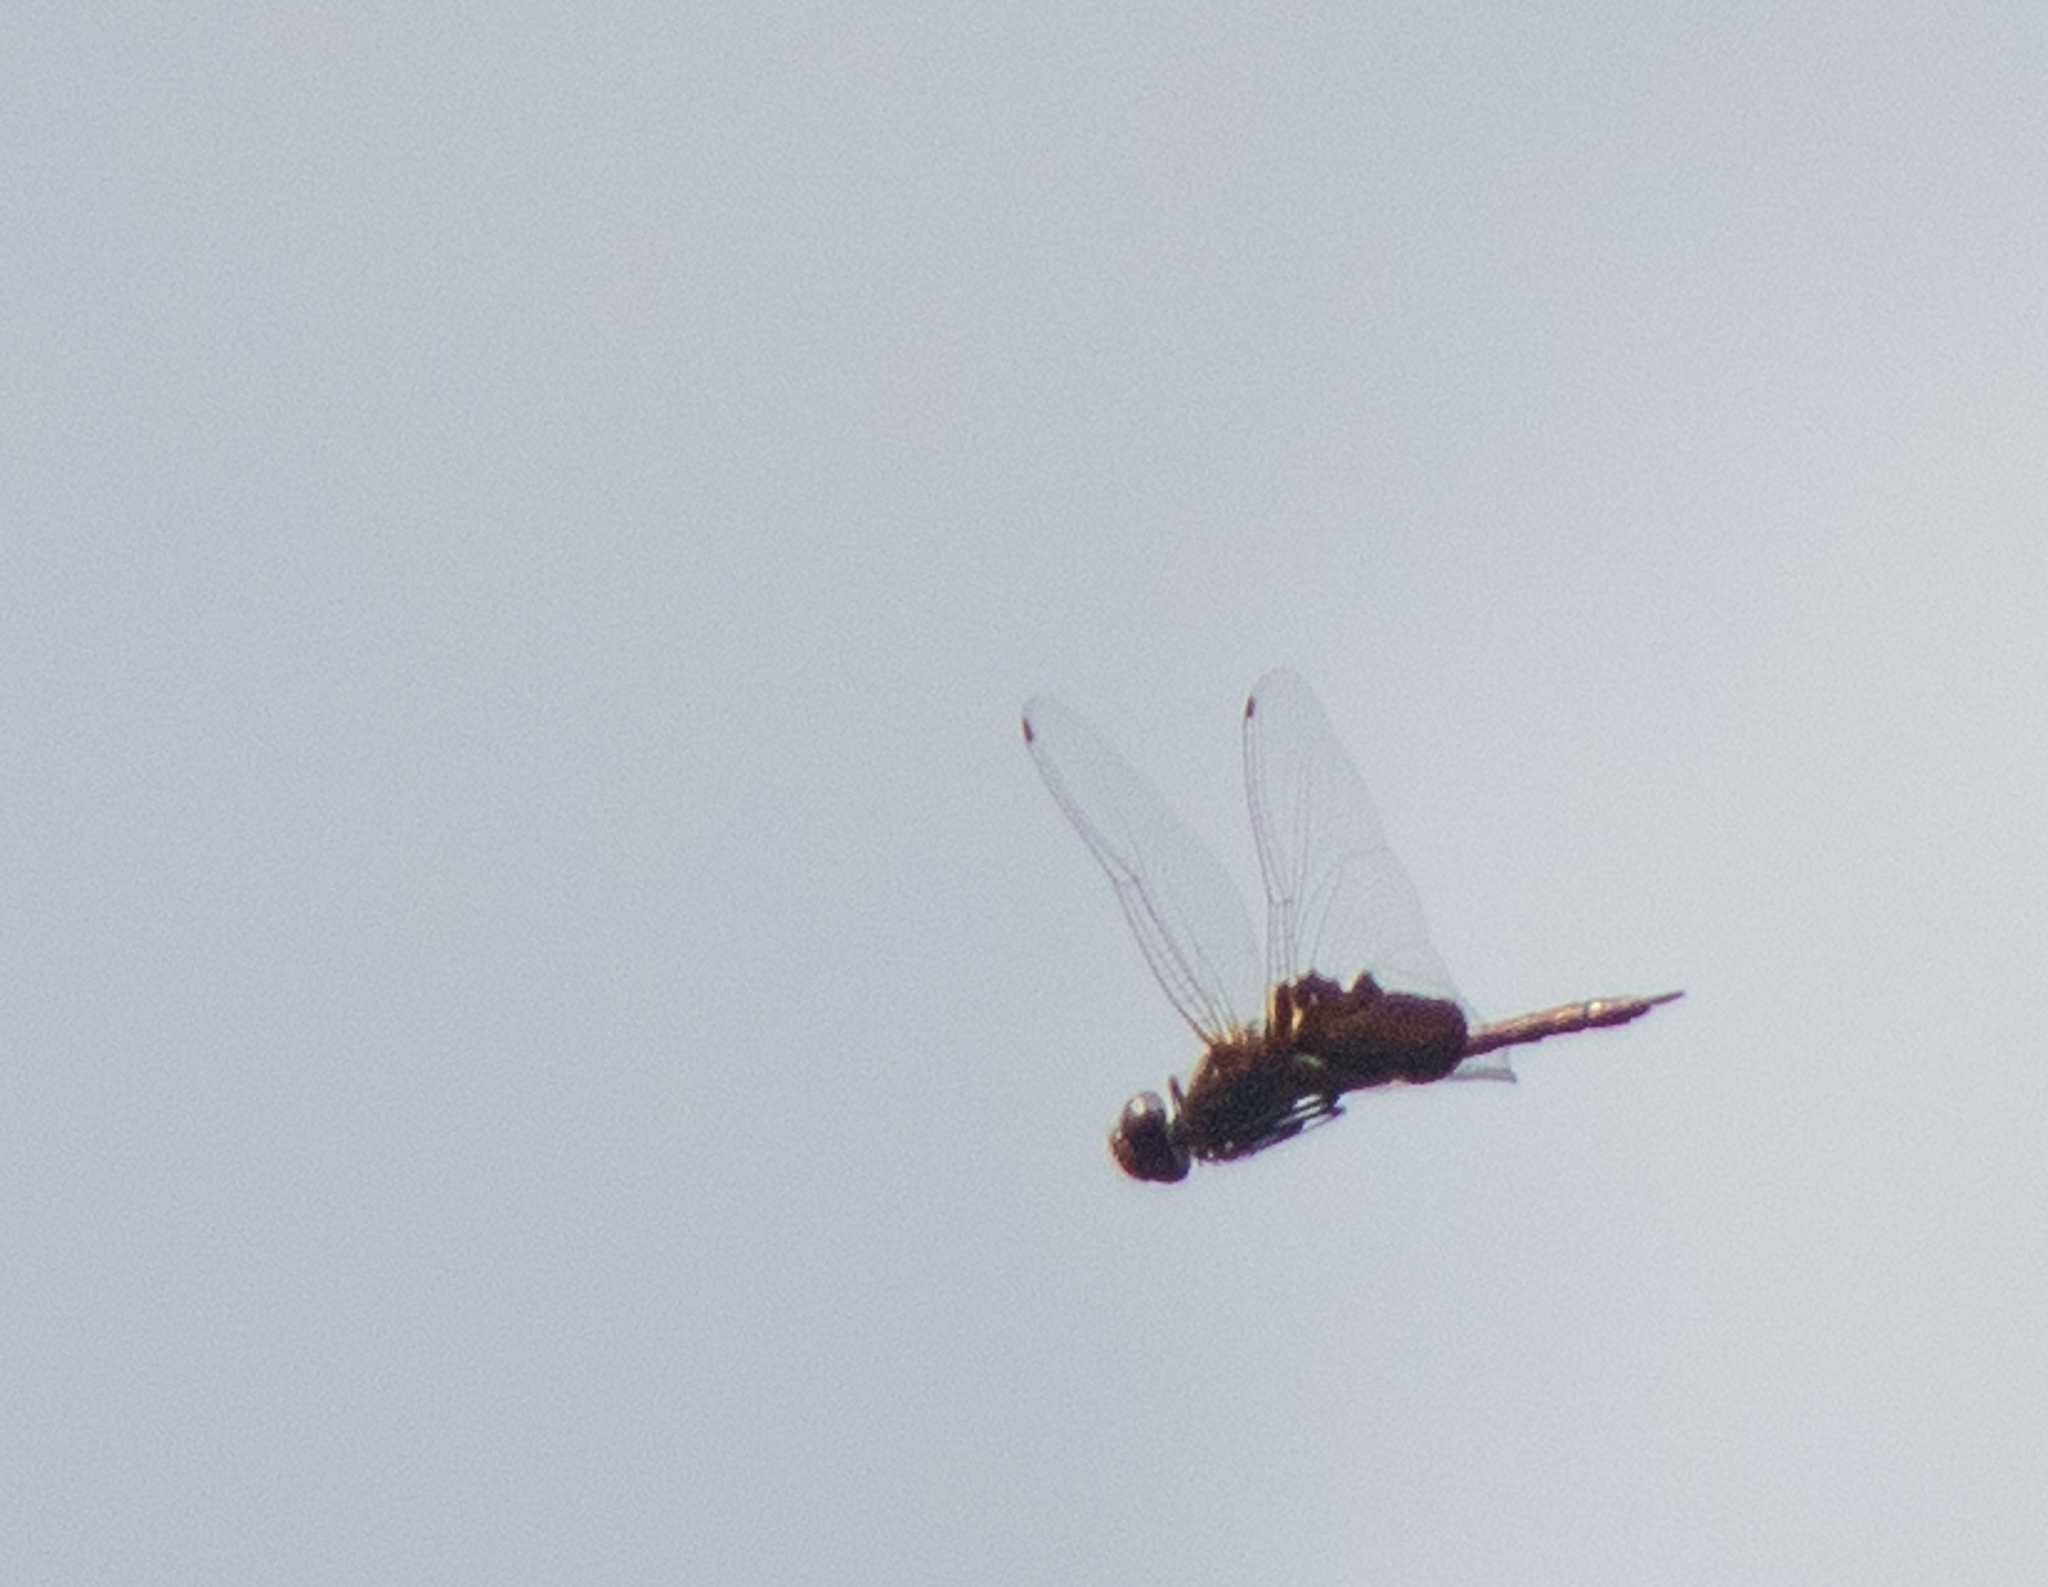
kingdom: Animalia
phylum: Arthropoda
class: Insecta
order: Odonata
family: Libellulidae
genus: Tramea
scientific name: Tramea carolina
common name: Carolina saddlebags
